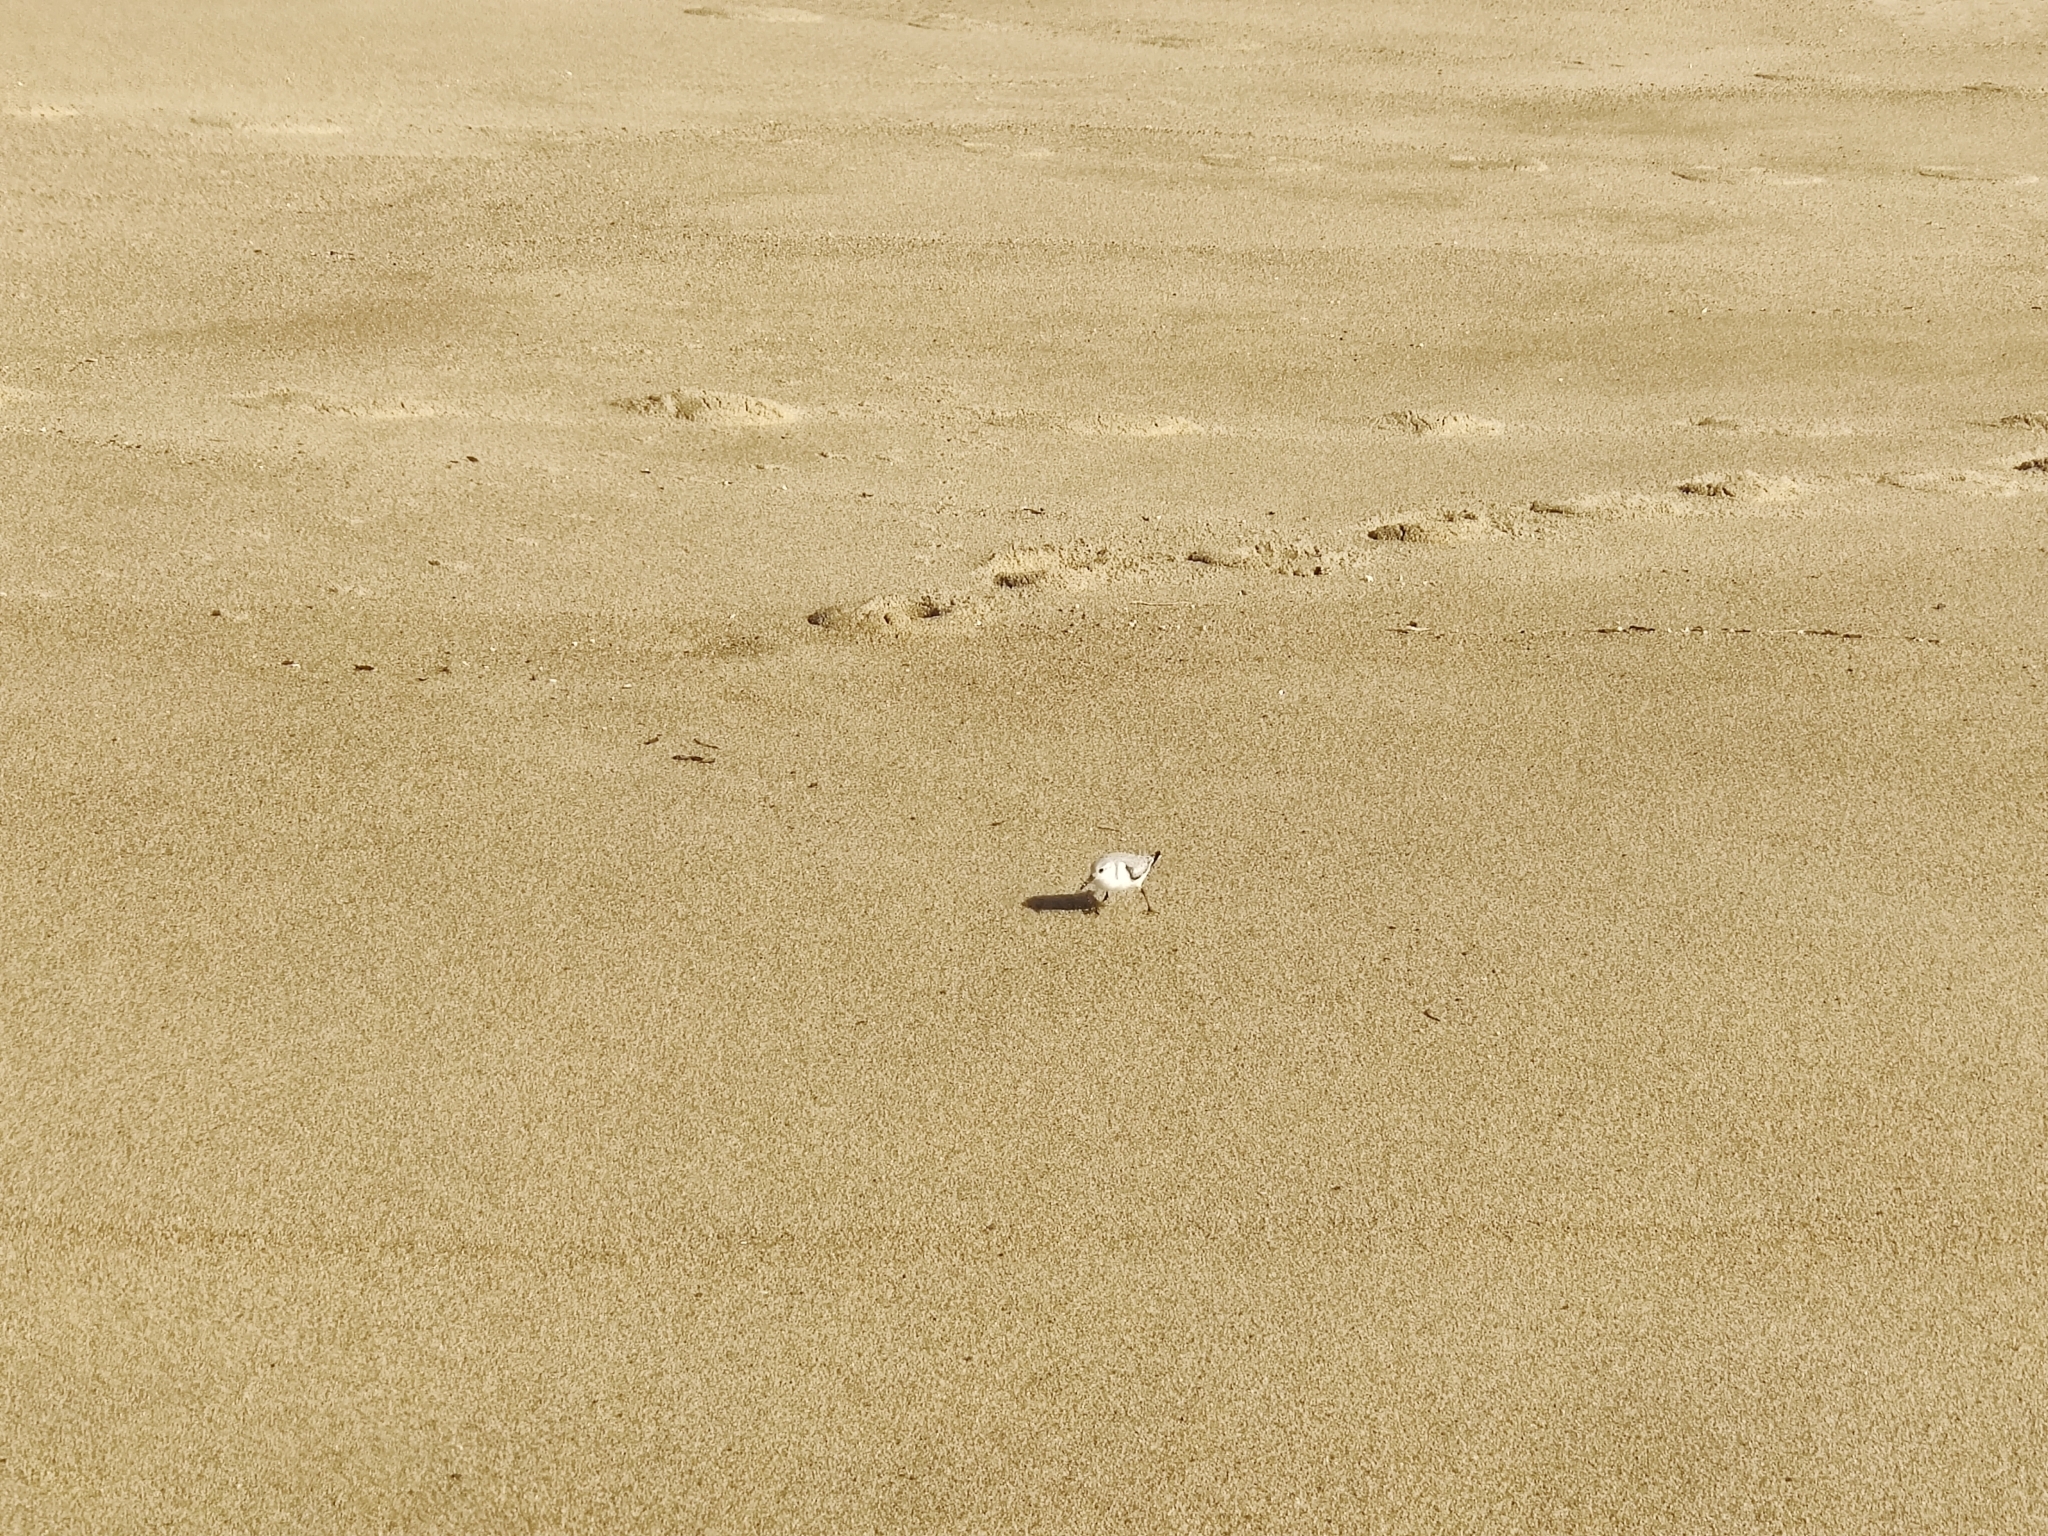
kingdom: Animalia
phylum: Chordata
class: Aves
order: Charadriiformes
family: Scolopacidae
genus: Calidris
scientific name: Calidris alba
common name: Sanderling
